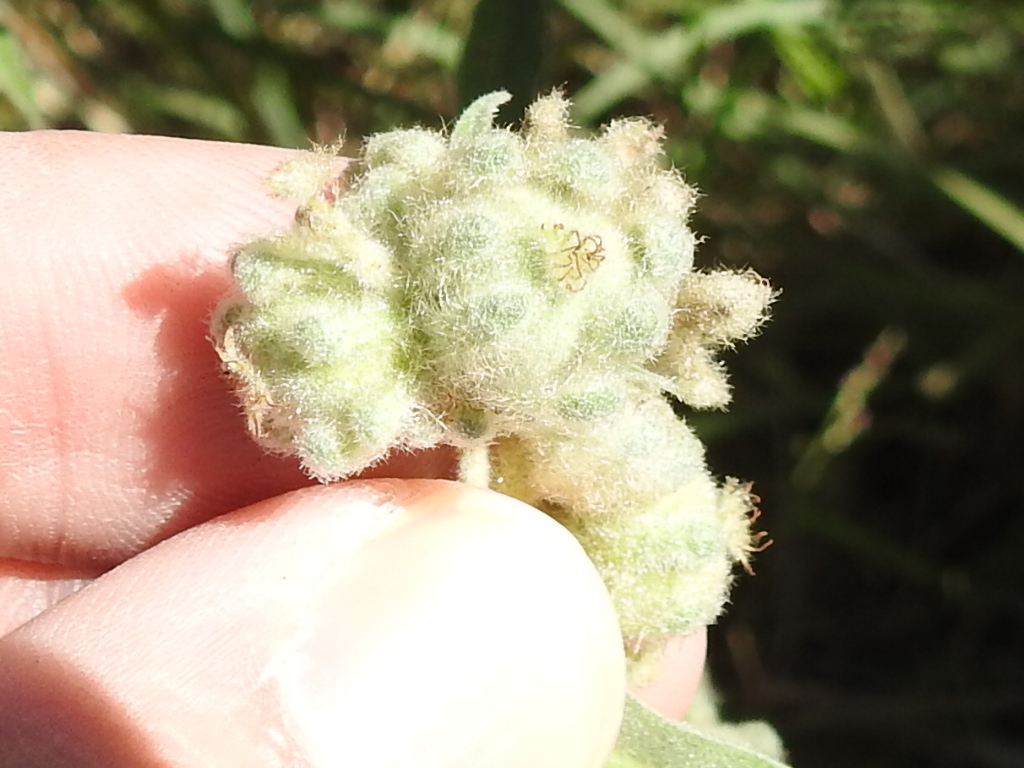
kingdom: Plantae
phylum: Tracheophyta
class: Magnoliopsida
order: Malpighiales
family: Euphorbiaceae
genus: Croton
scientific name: Croton lindheimeri
